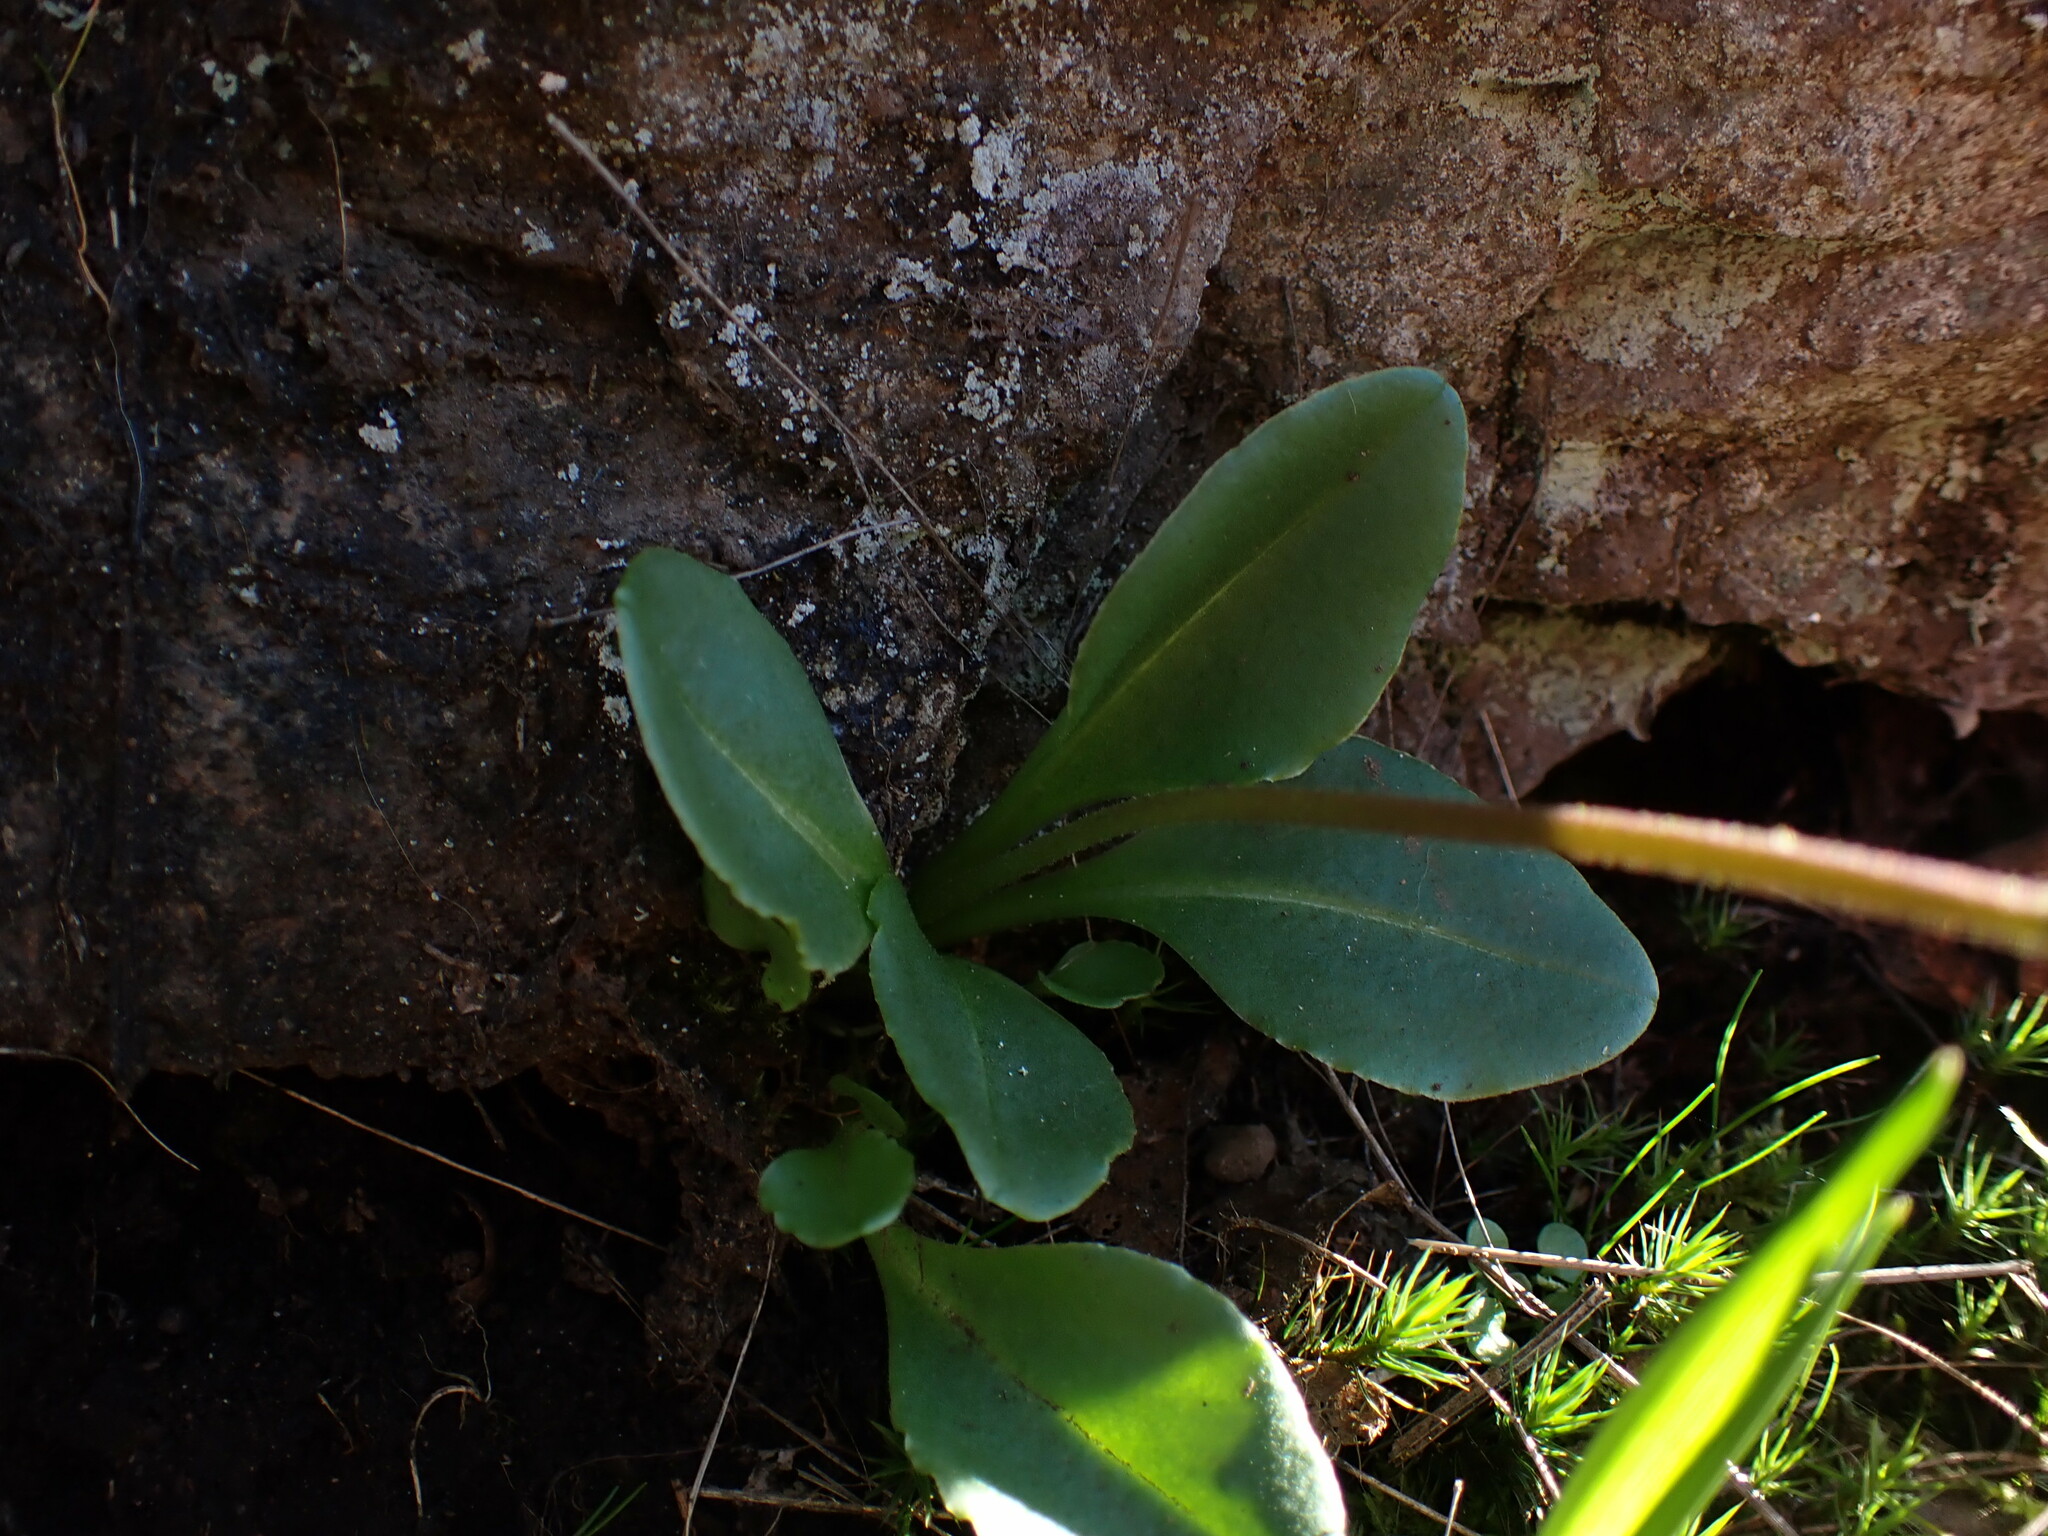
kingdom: Plantae
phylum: Tracheophyta
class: Magnoliopsida
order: Ericales
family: Primulaceae
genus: Dodecatheon
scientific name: Dodecatheon hendersonii
